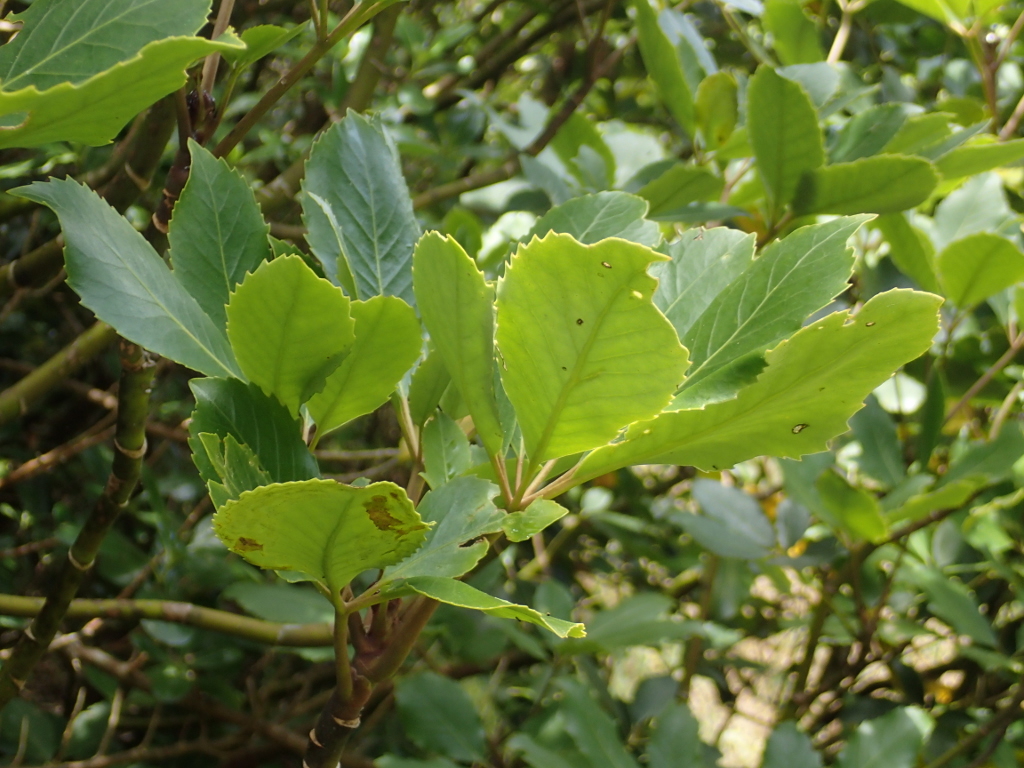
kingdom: Plantae
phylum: Tracheophyta
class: Magnoliopsida
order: Apiales
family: Araliaceae
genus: Neopanax
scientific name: Neopanax arboreus
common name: Five-fingers
